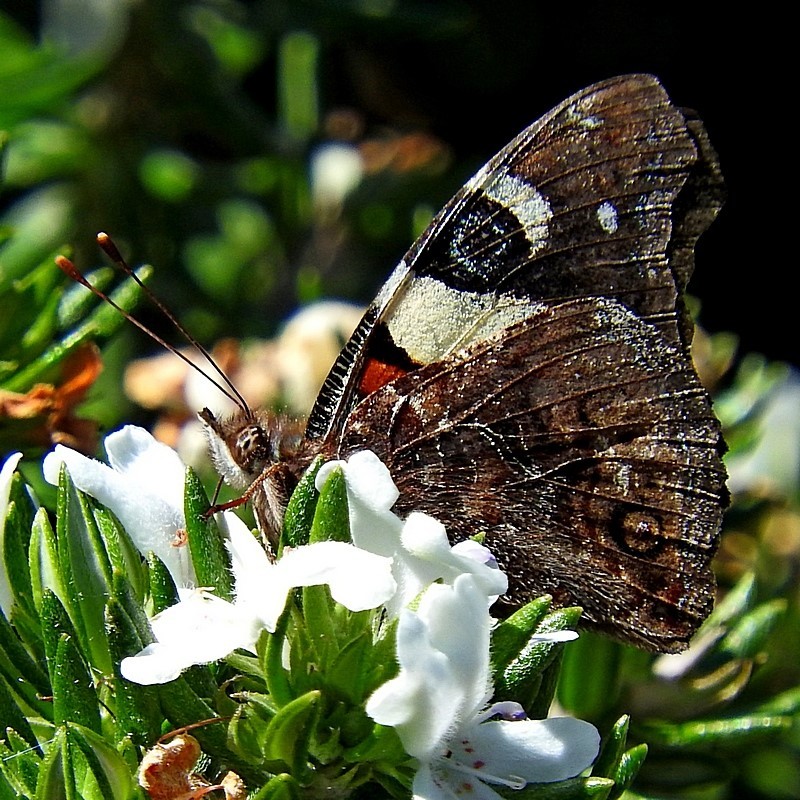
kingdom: Animalia
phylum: Arthropoda
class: Insecta
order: Lepidoptera
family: Nymphalidae
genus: Vanessa
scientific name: Vanessa itea
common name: Yellow admiral
